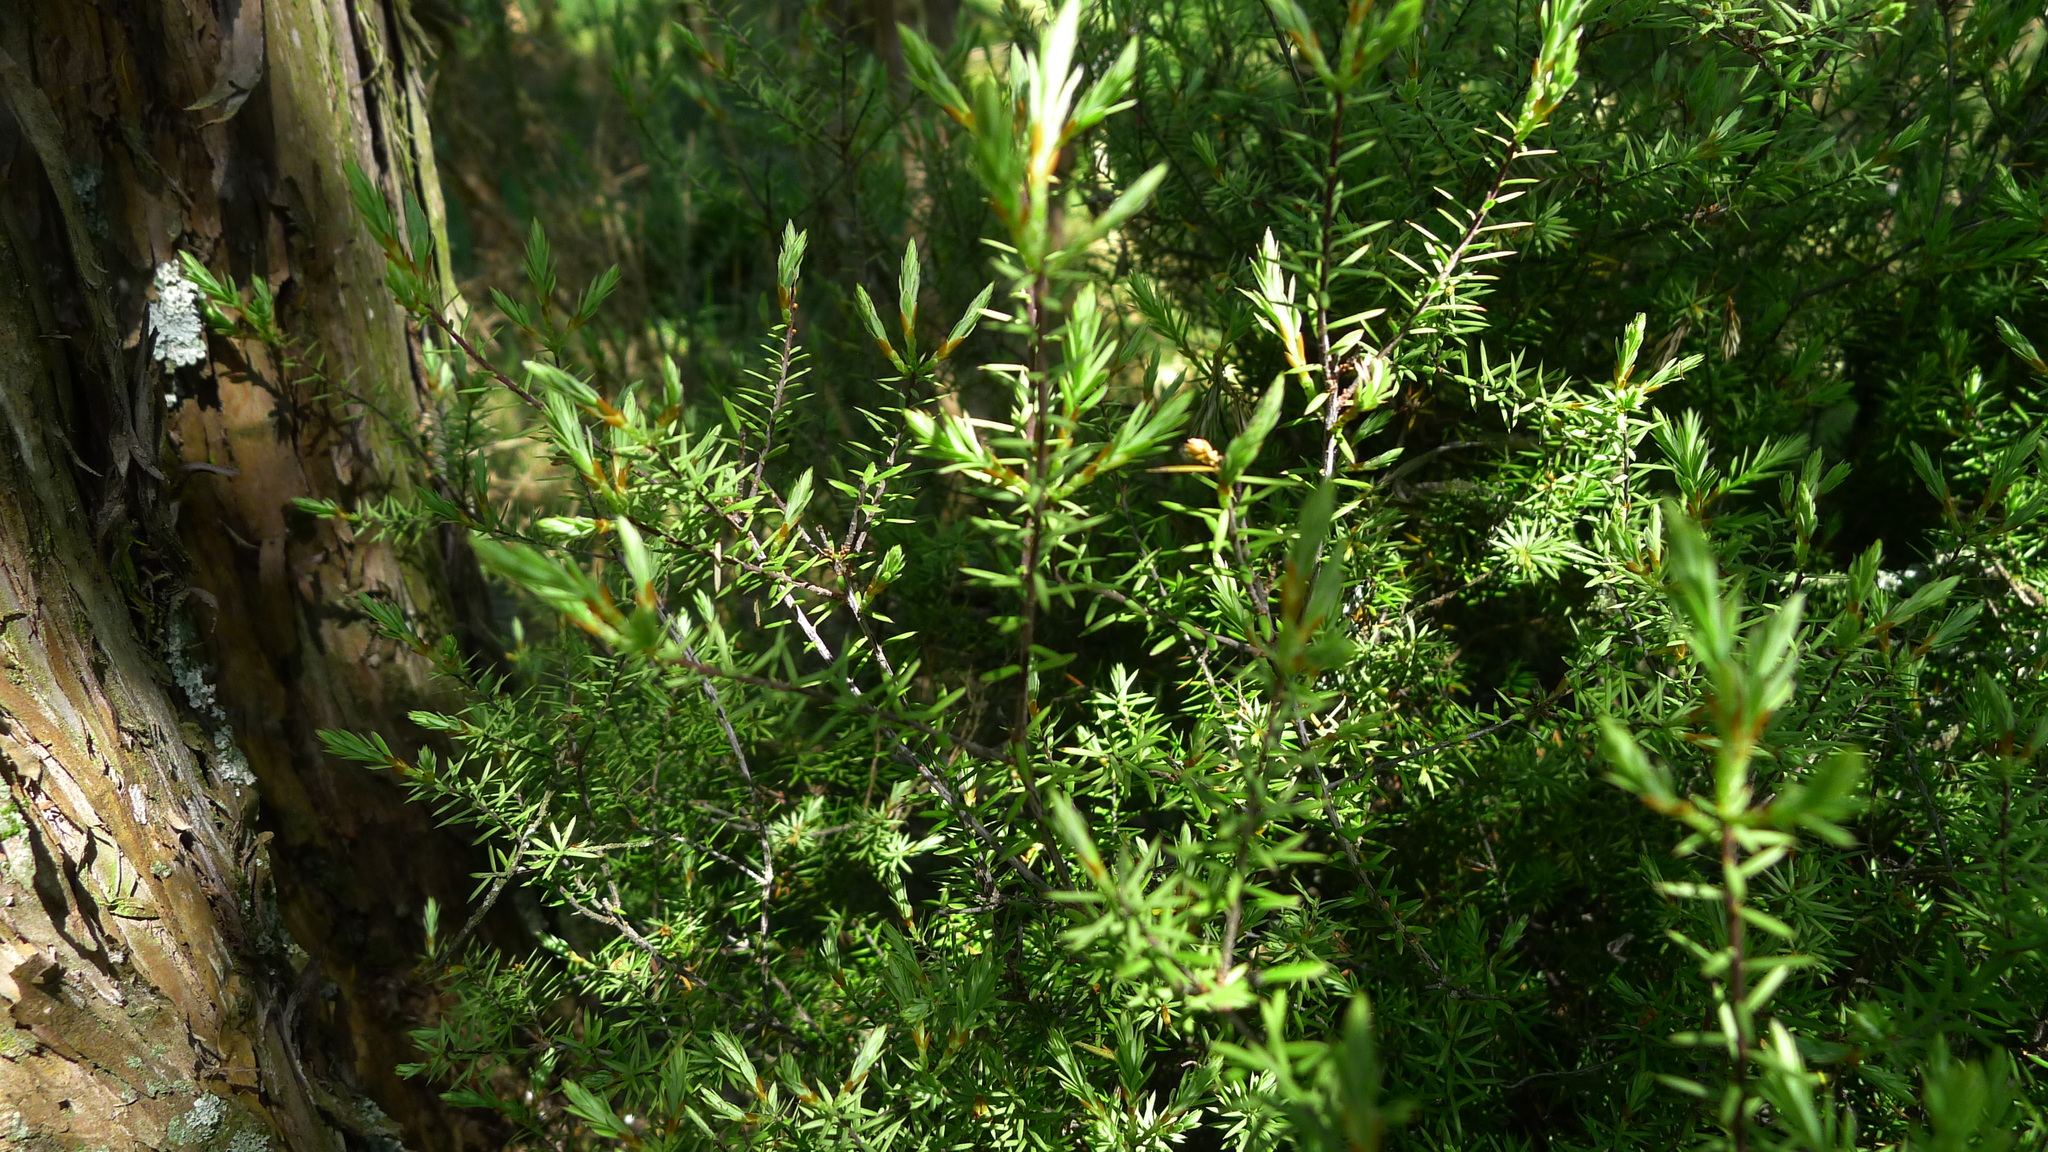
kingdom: Plantae
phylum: Tracheophyta
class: Magnoliopsida
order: Ericales
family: Ericaceae
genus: Leptecophylla
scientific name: Leptecophylla juniperina
